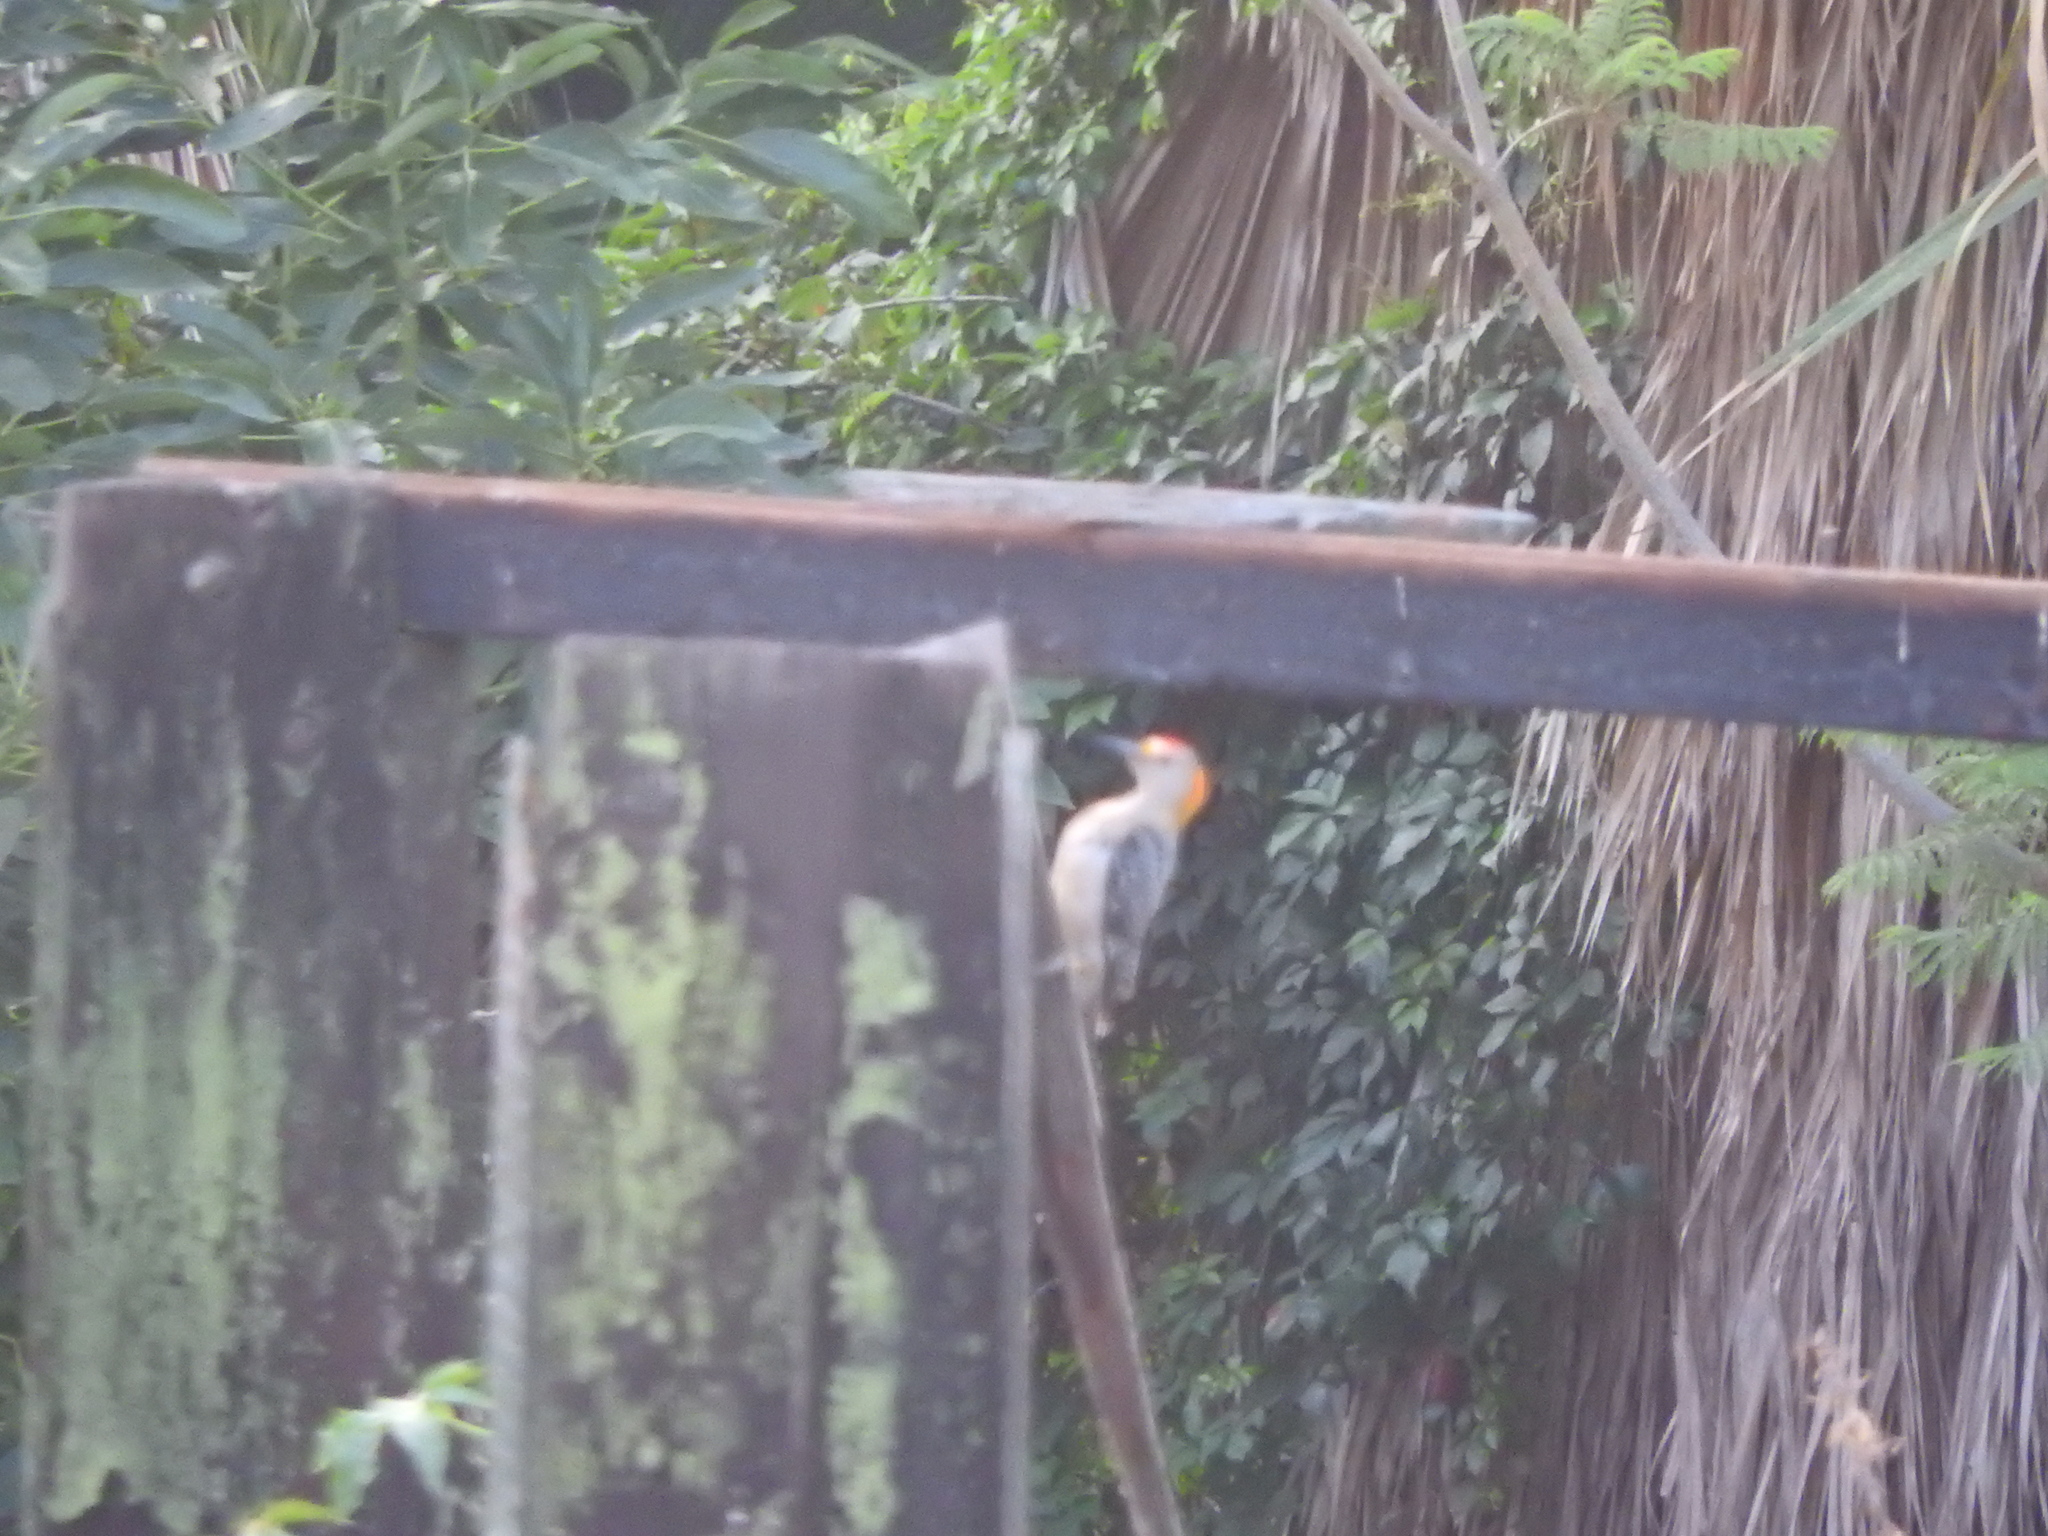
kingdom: Animalia
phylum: Chordata
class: Aves
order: Piciformes
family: Picidae
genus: Melanerpes
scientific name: Melanerpes aurifrons
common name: Golden-fronted woodpecker
